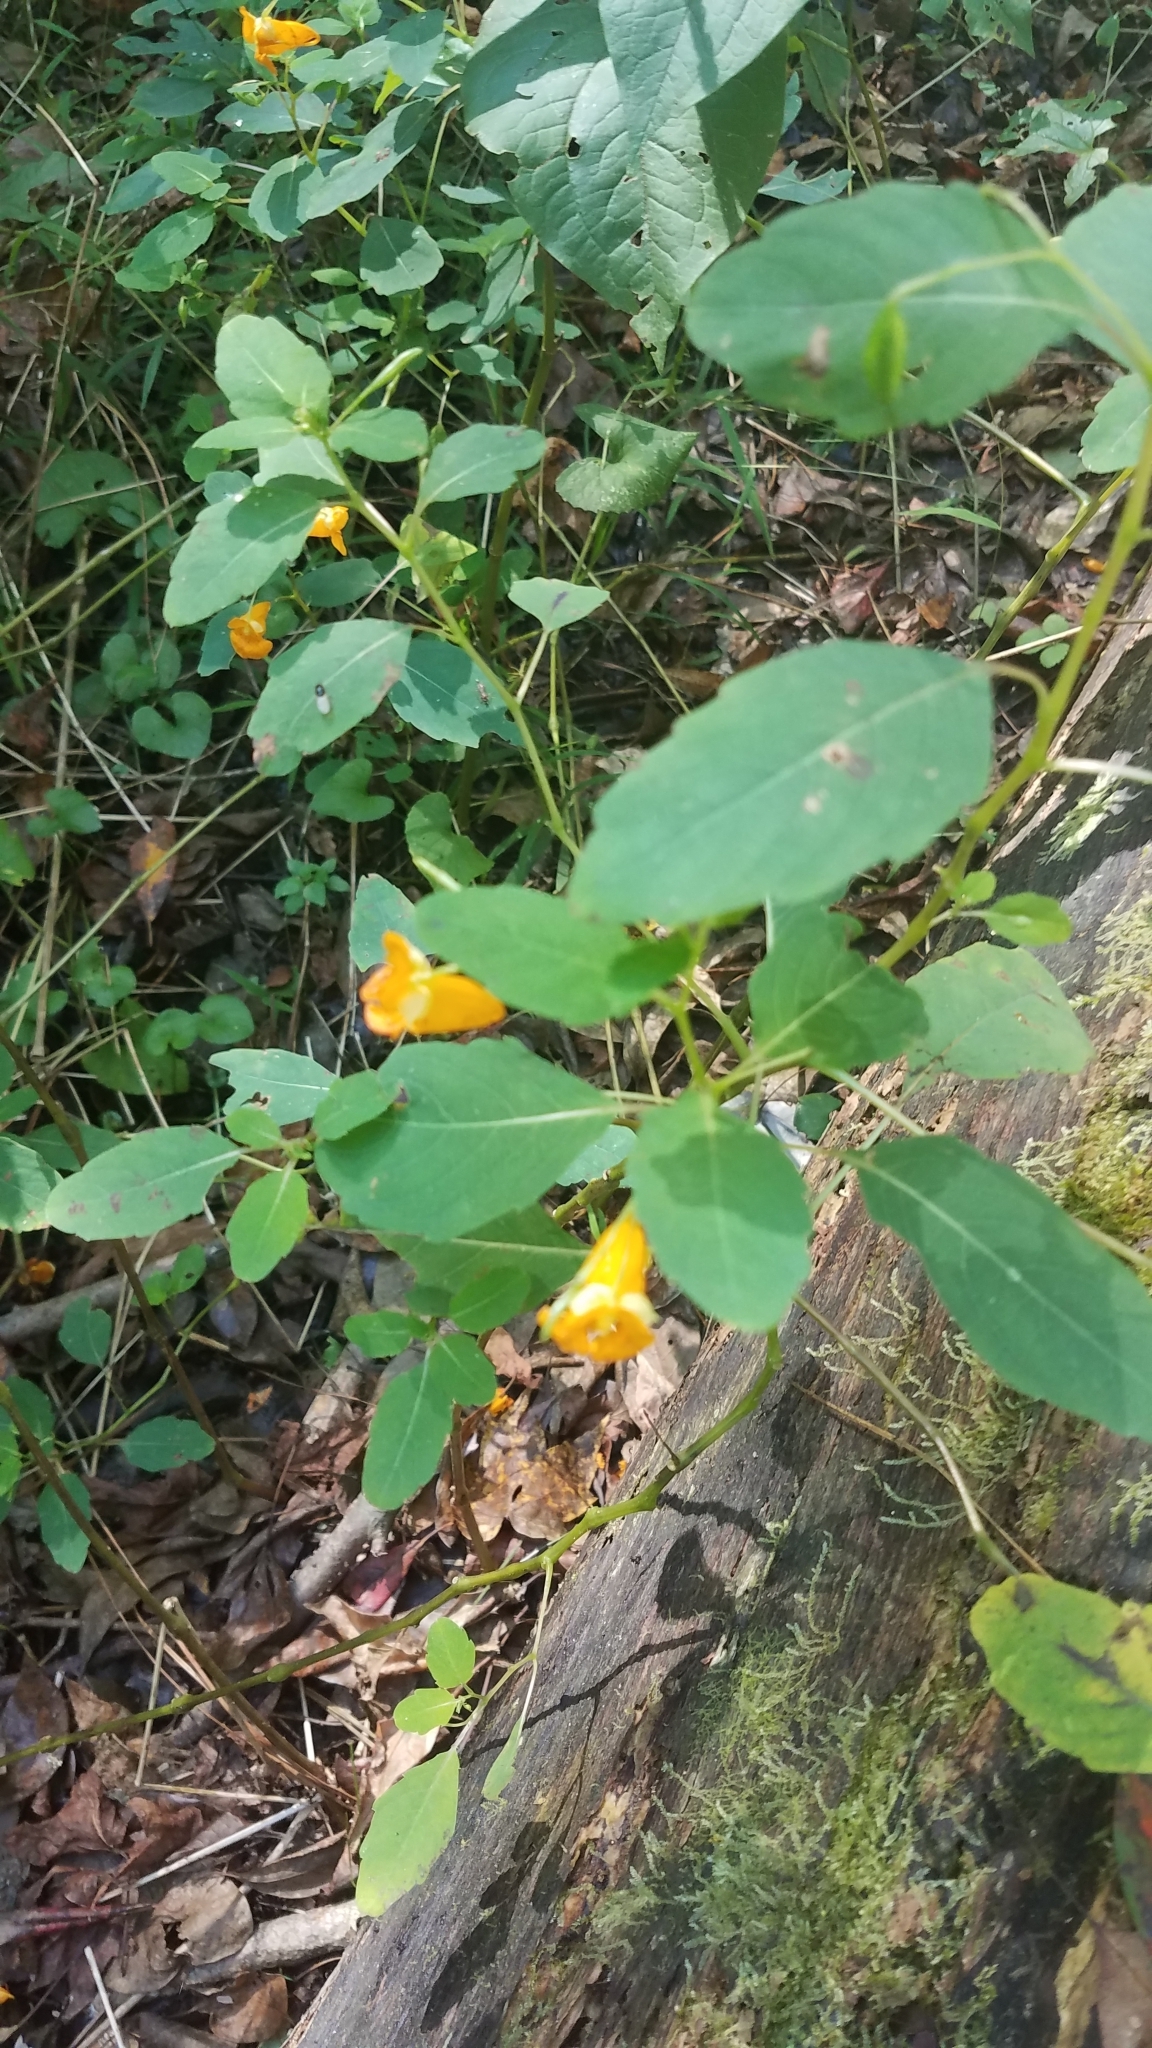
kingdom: Plantae
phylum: Tracheophyta
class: Magnoliopsida
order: Ericales
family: Balsaminaceae
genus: Impatiens
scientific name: Impatiens capensis
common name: Orange balsam
